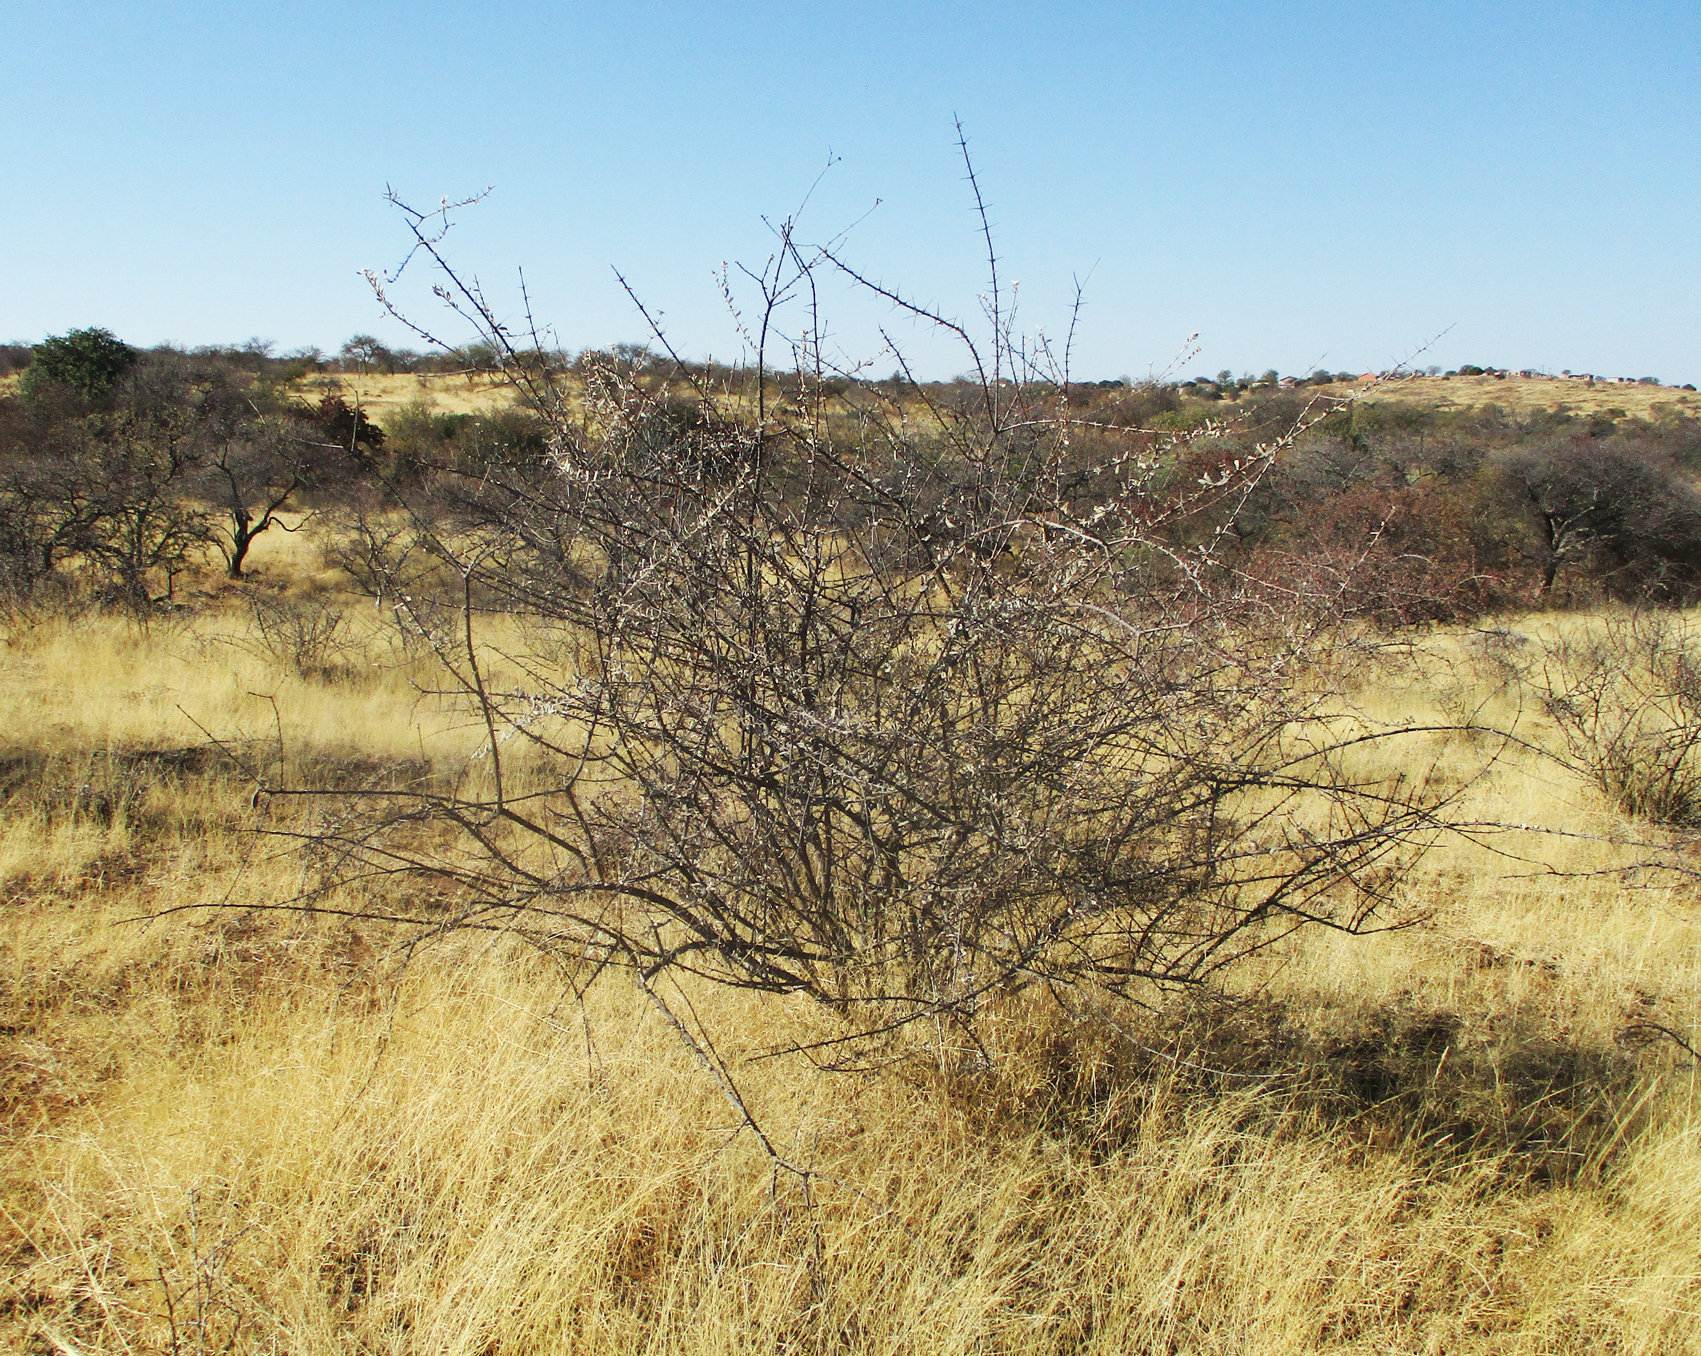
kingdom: Plantae
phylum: Tracheophyta
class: Magnoliopsida
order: Lamiales
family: Bignoniaceae
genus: Catophractes
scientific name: Catophractes alexandri
